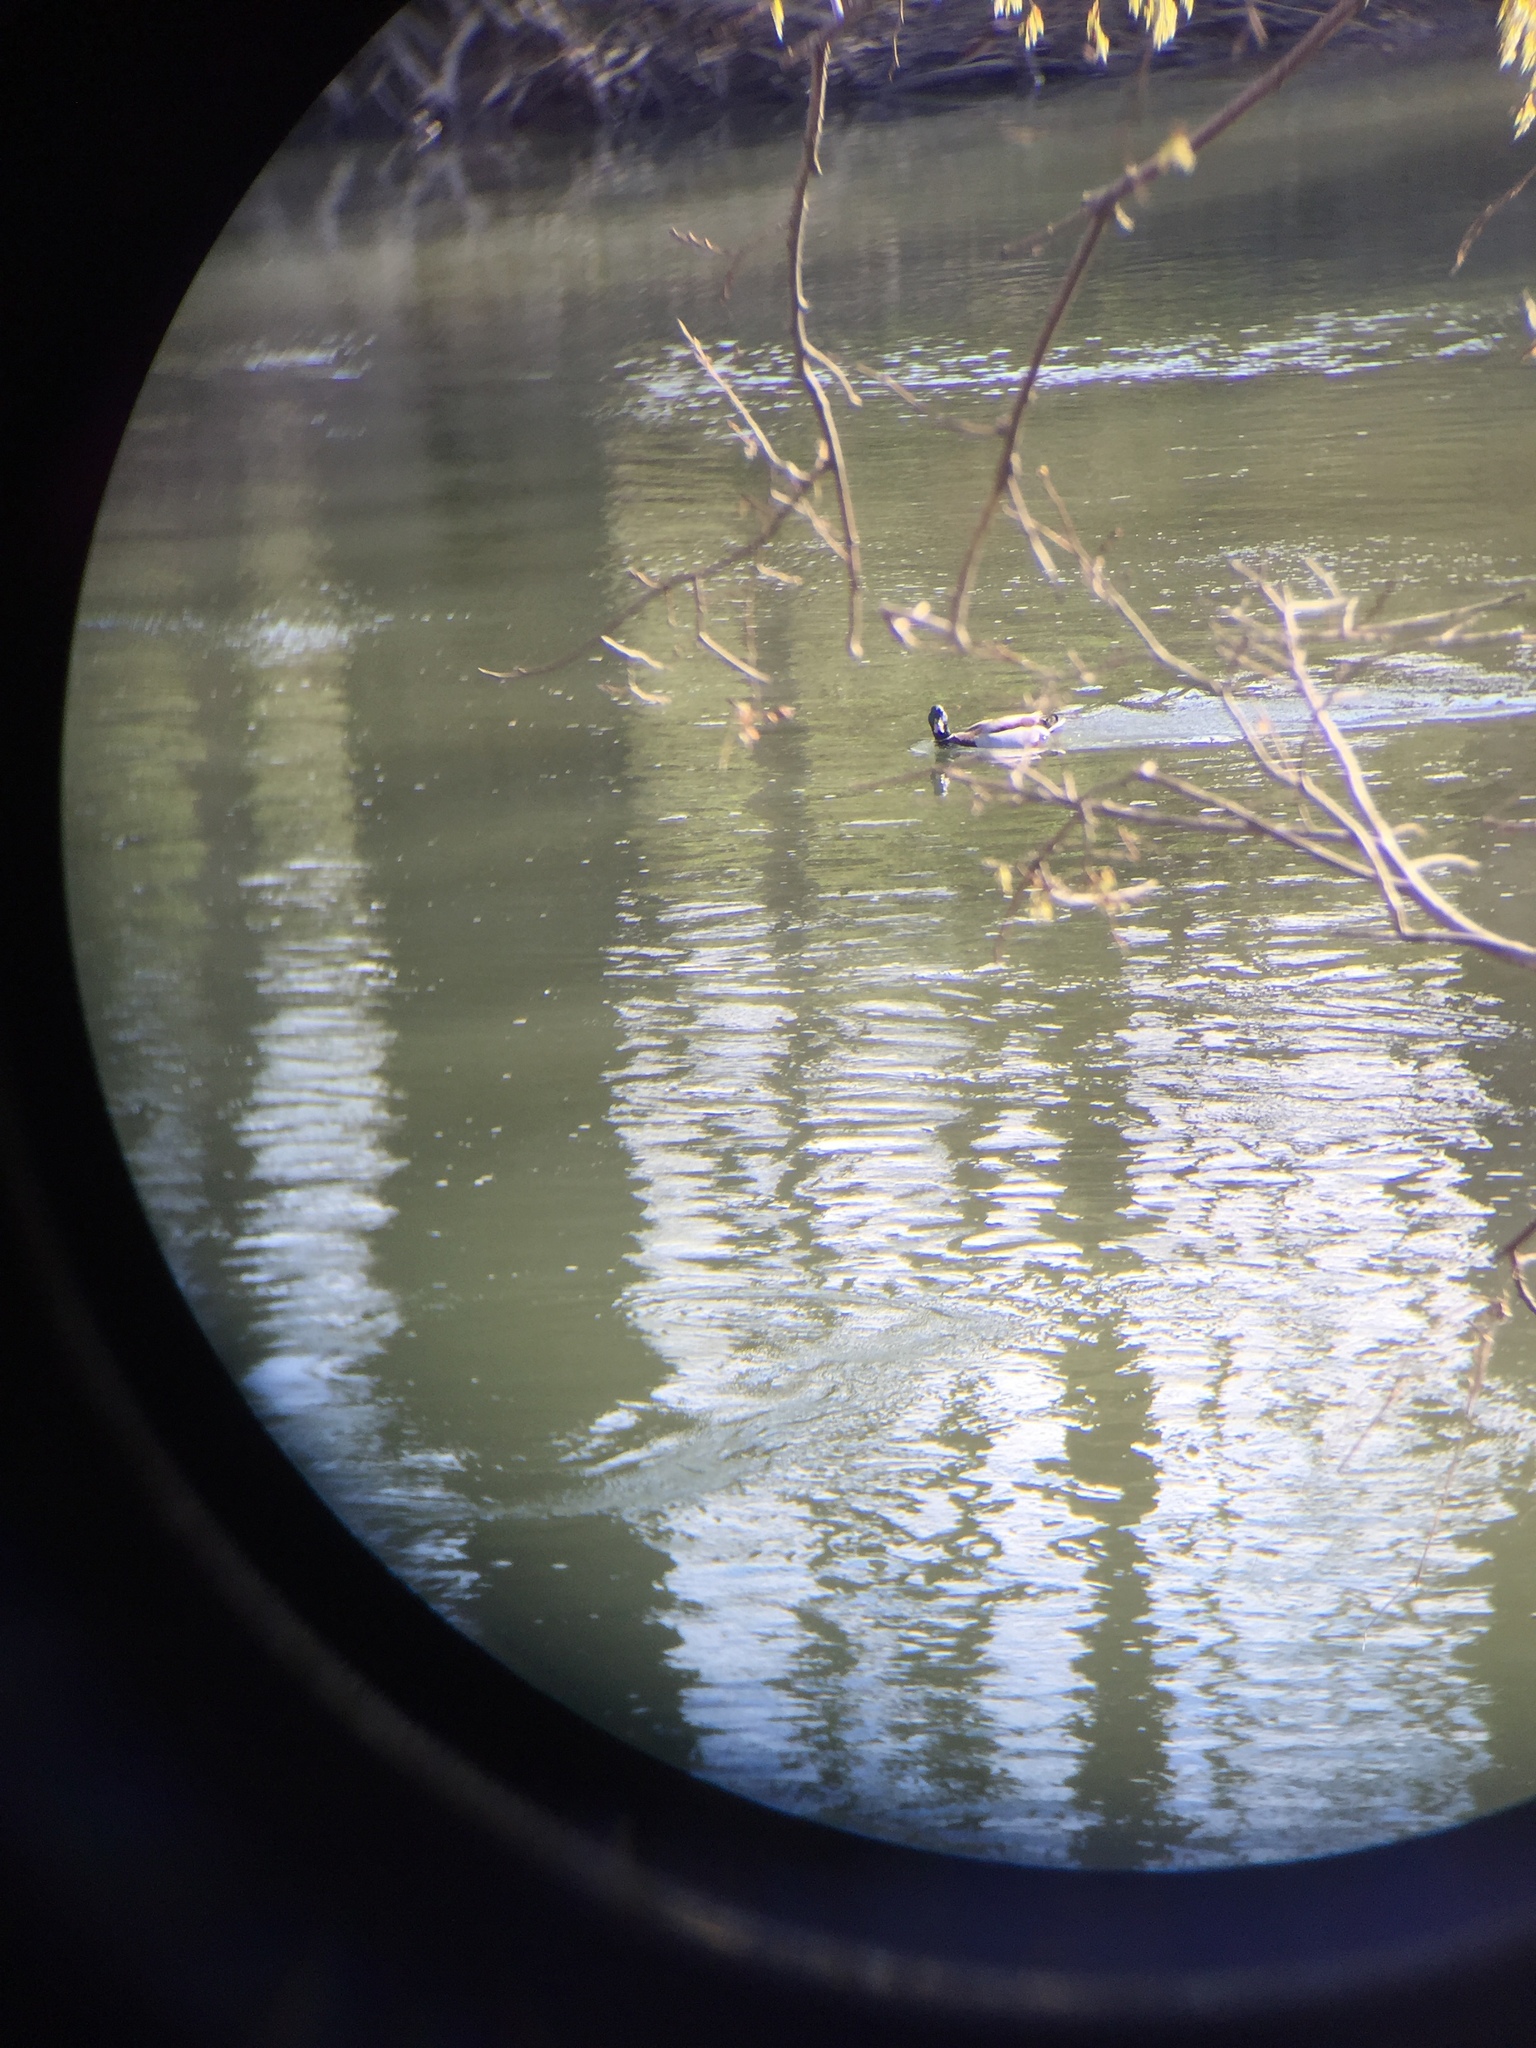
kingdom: Animalia
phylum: Chordata
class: Aves
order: Anseriformes
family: Anatidae
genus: Anas
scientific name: Anas platyrhynchos
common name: Mallard
